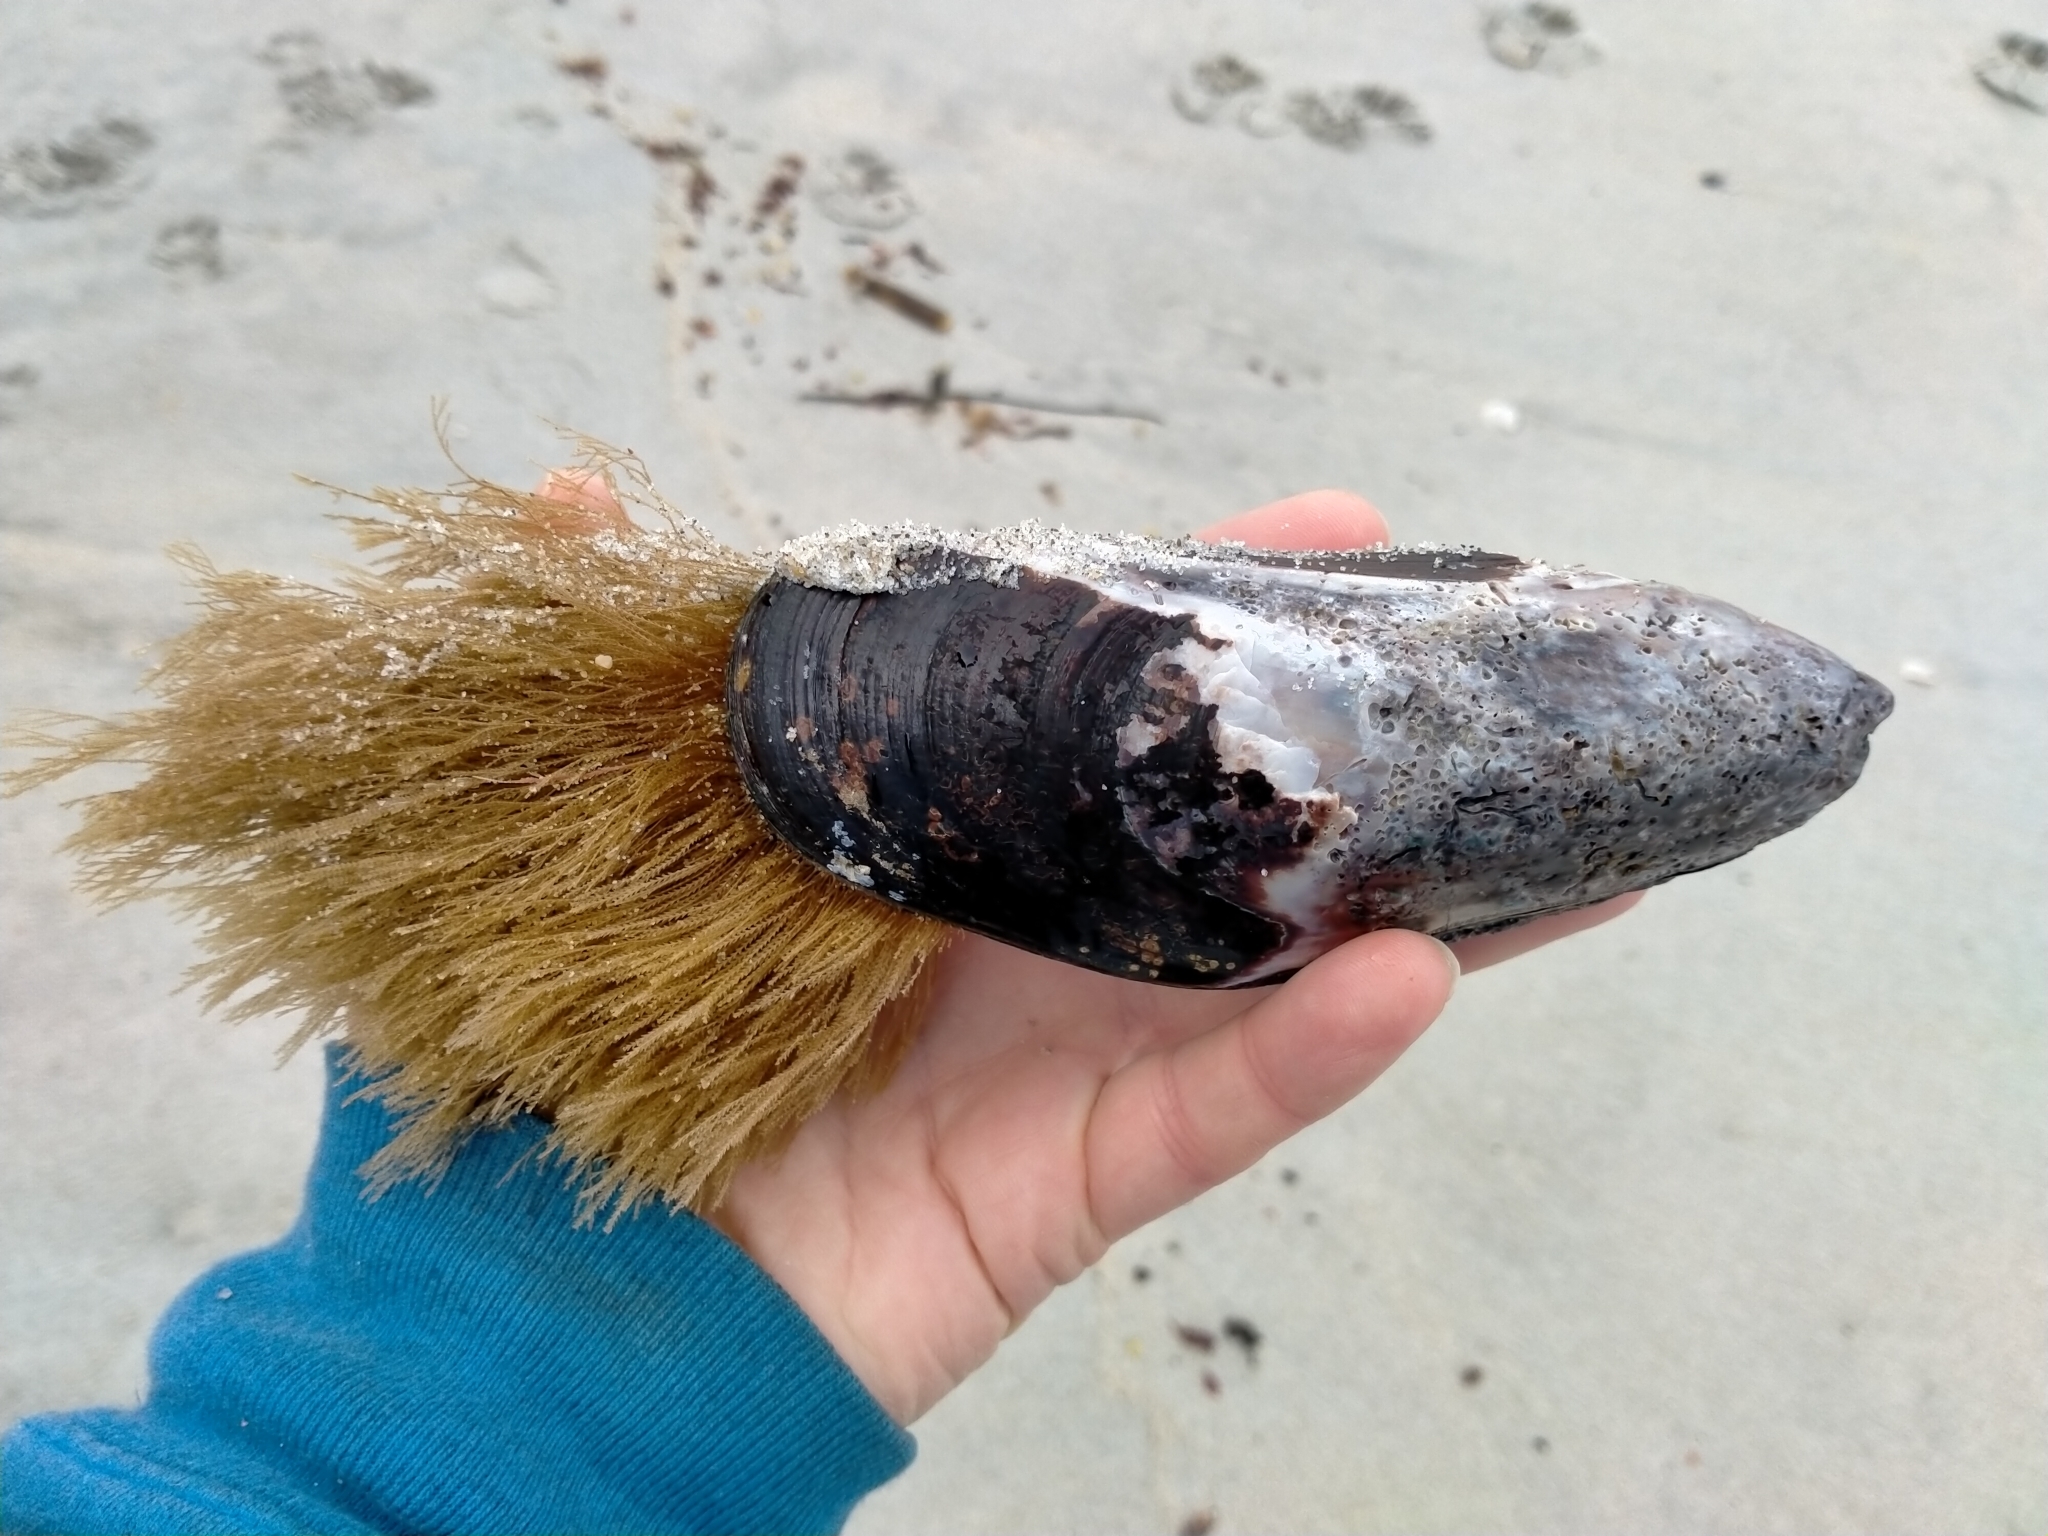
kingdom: Animalia
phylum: Mollusca
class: Bivalvia
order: Mytilida
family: Mytilidae
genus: Perna
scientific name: Perna canaliculus
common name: New zealand greenshelltm
